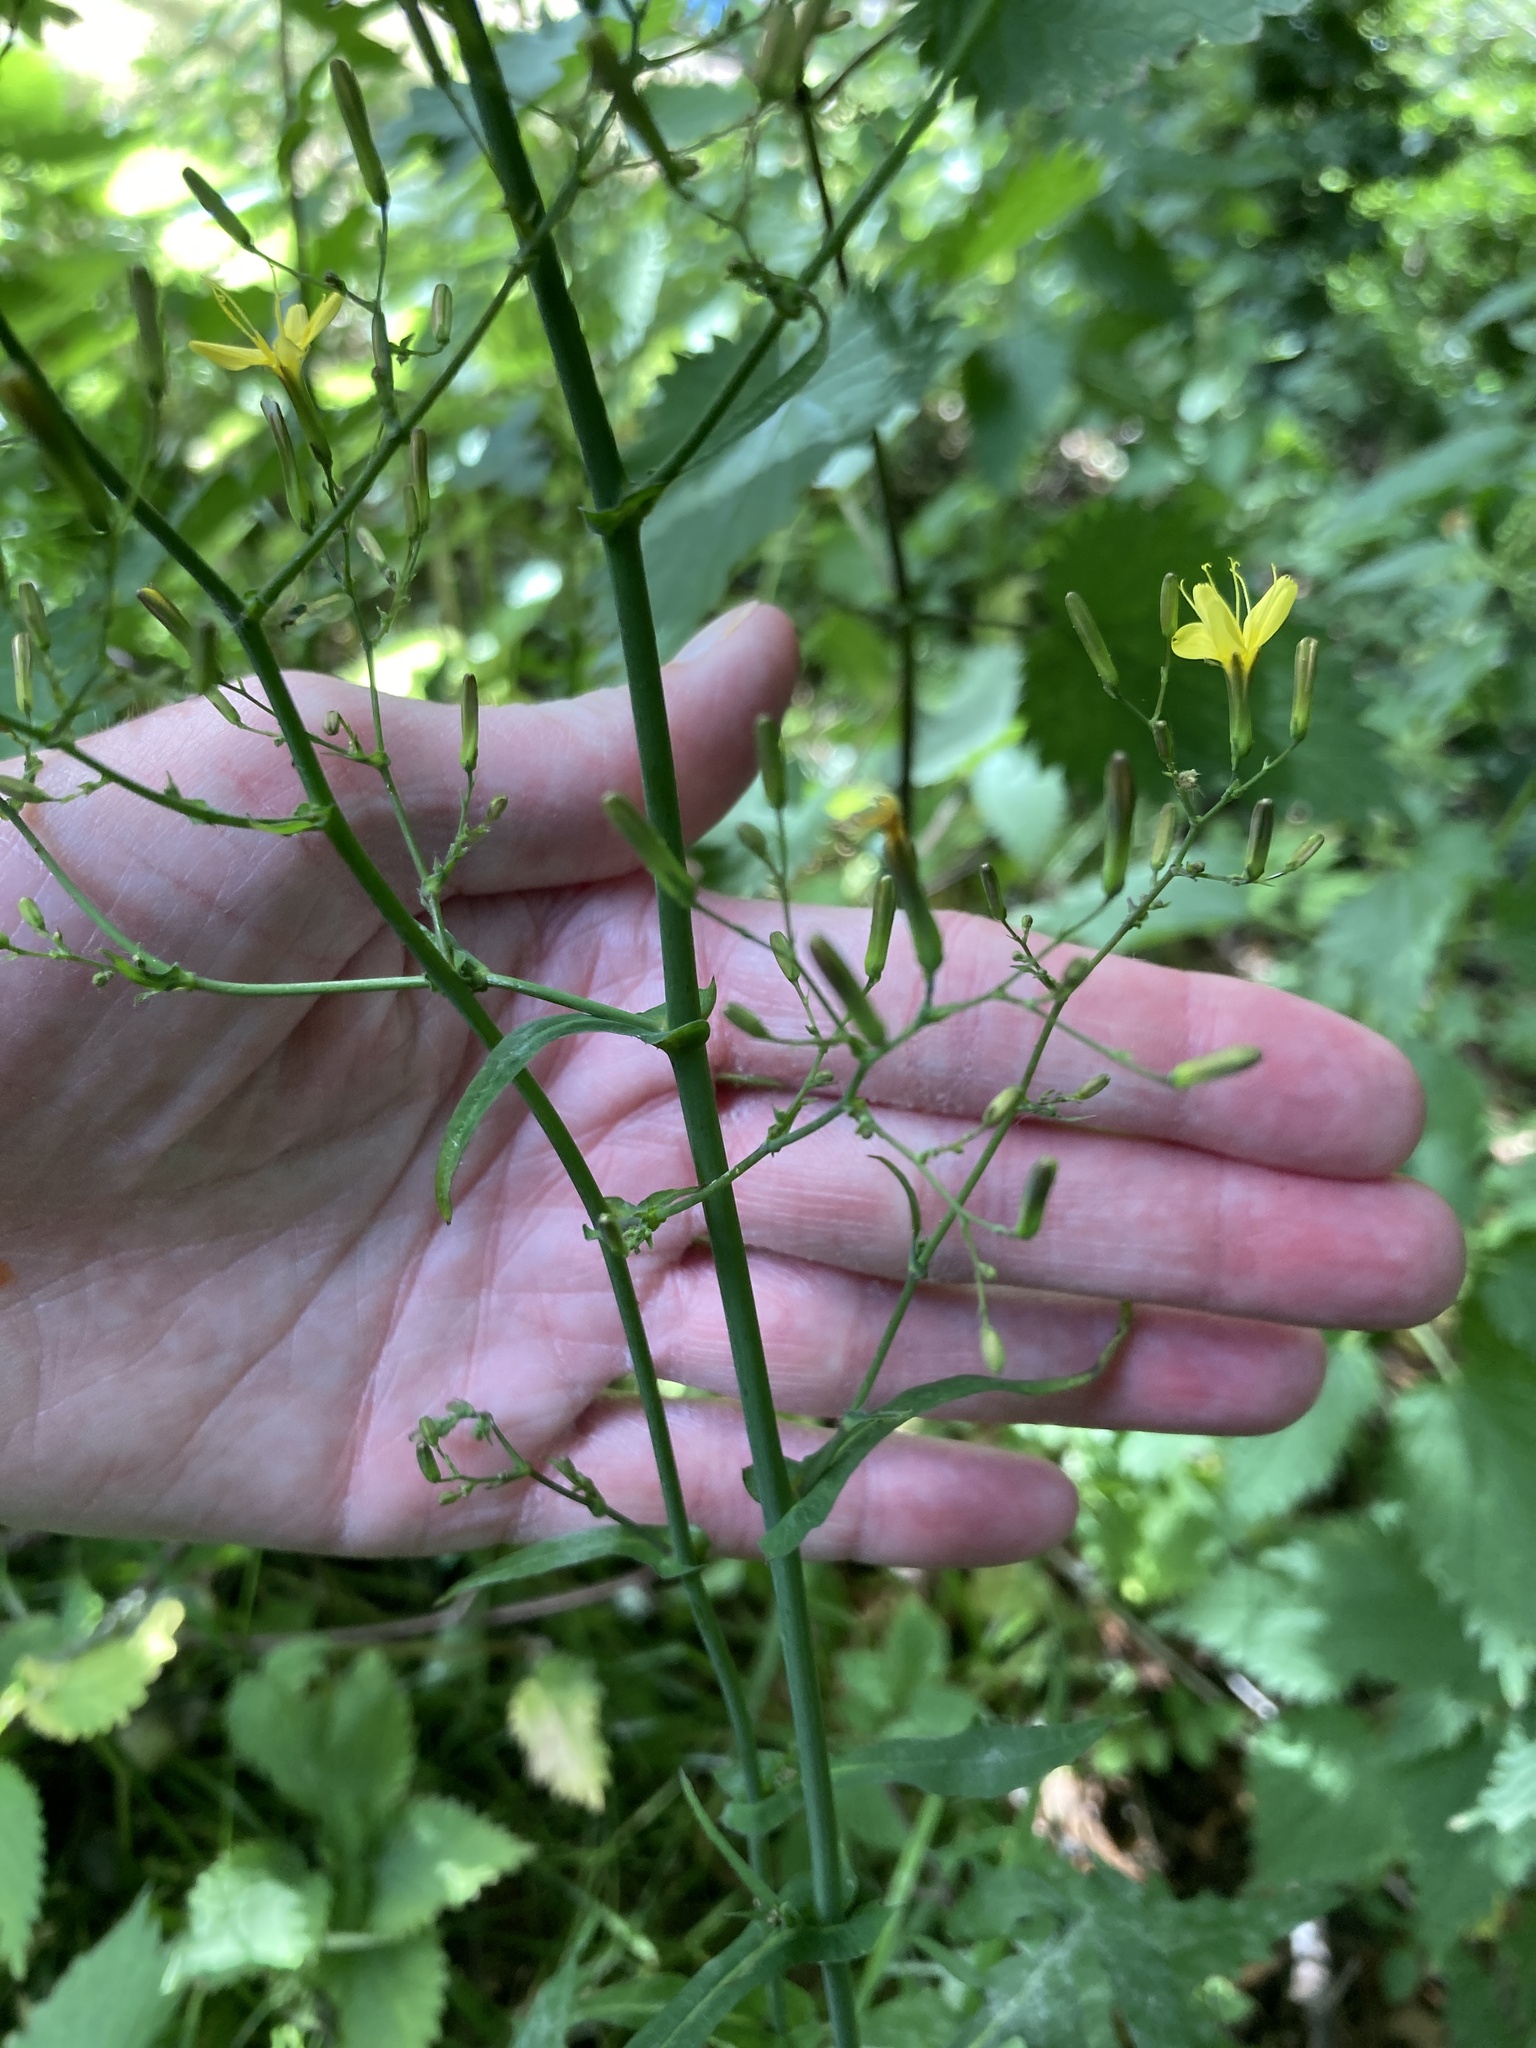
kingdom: Plantae
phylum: Tracheophyta
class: Magnoliopsida
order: Asterales
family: Asteraceae
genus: Mycelis
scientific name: Mycelis muralis
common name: Wall lettuce
